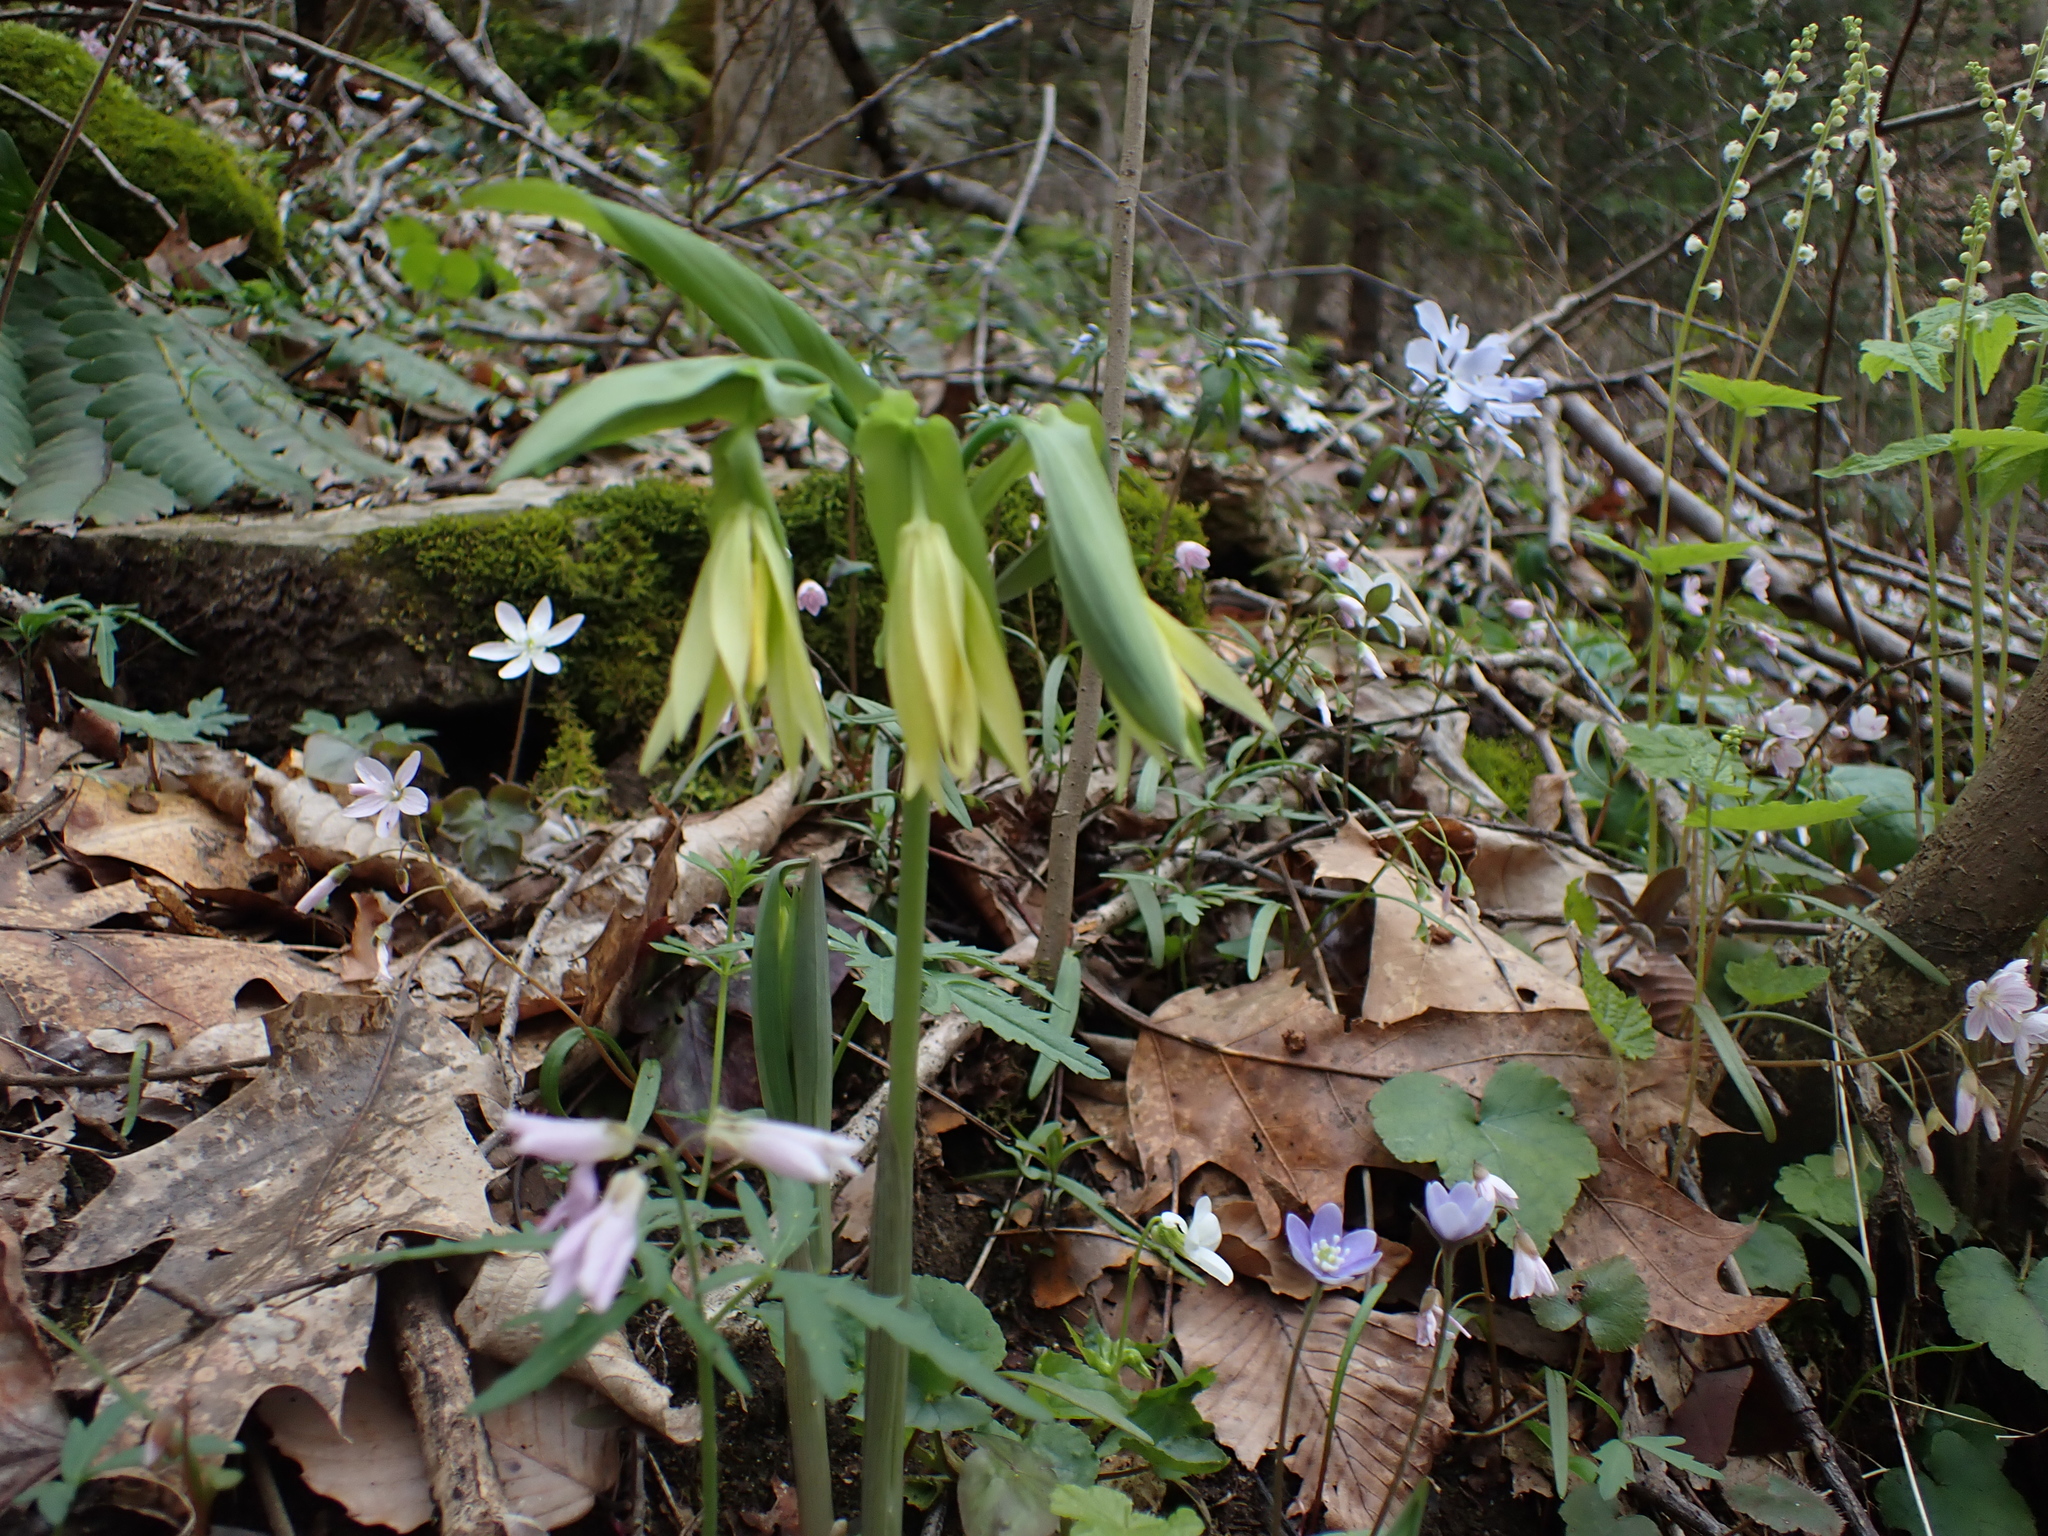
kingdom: Plantae
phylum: Tracheophyta
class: Liliopsida
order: Liliales
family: Colchicaceae
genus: Uvularia
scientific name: Uvularia grandiflora
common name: Bellwort
